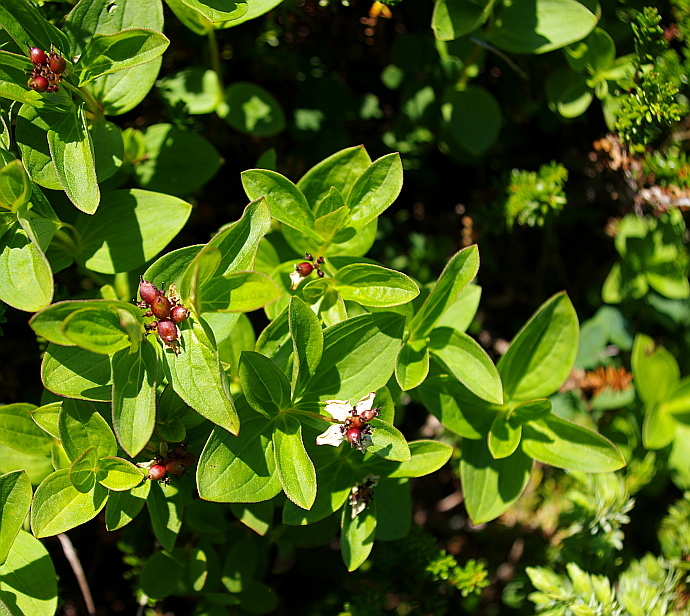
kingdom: Plantae
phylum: Tracheophyta
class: Magnoliopsida
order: Cornales
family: Cornaceae
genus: Cornus
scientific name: Cornus suecica
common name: Dwarf cornel
